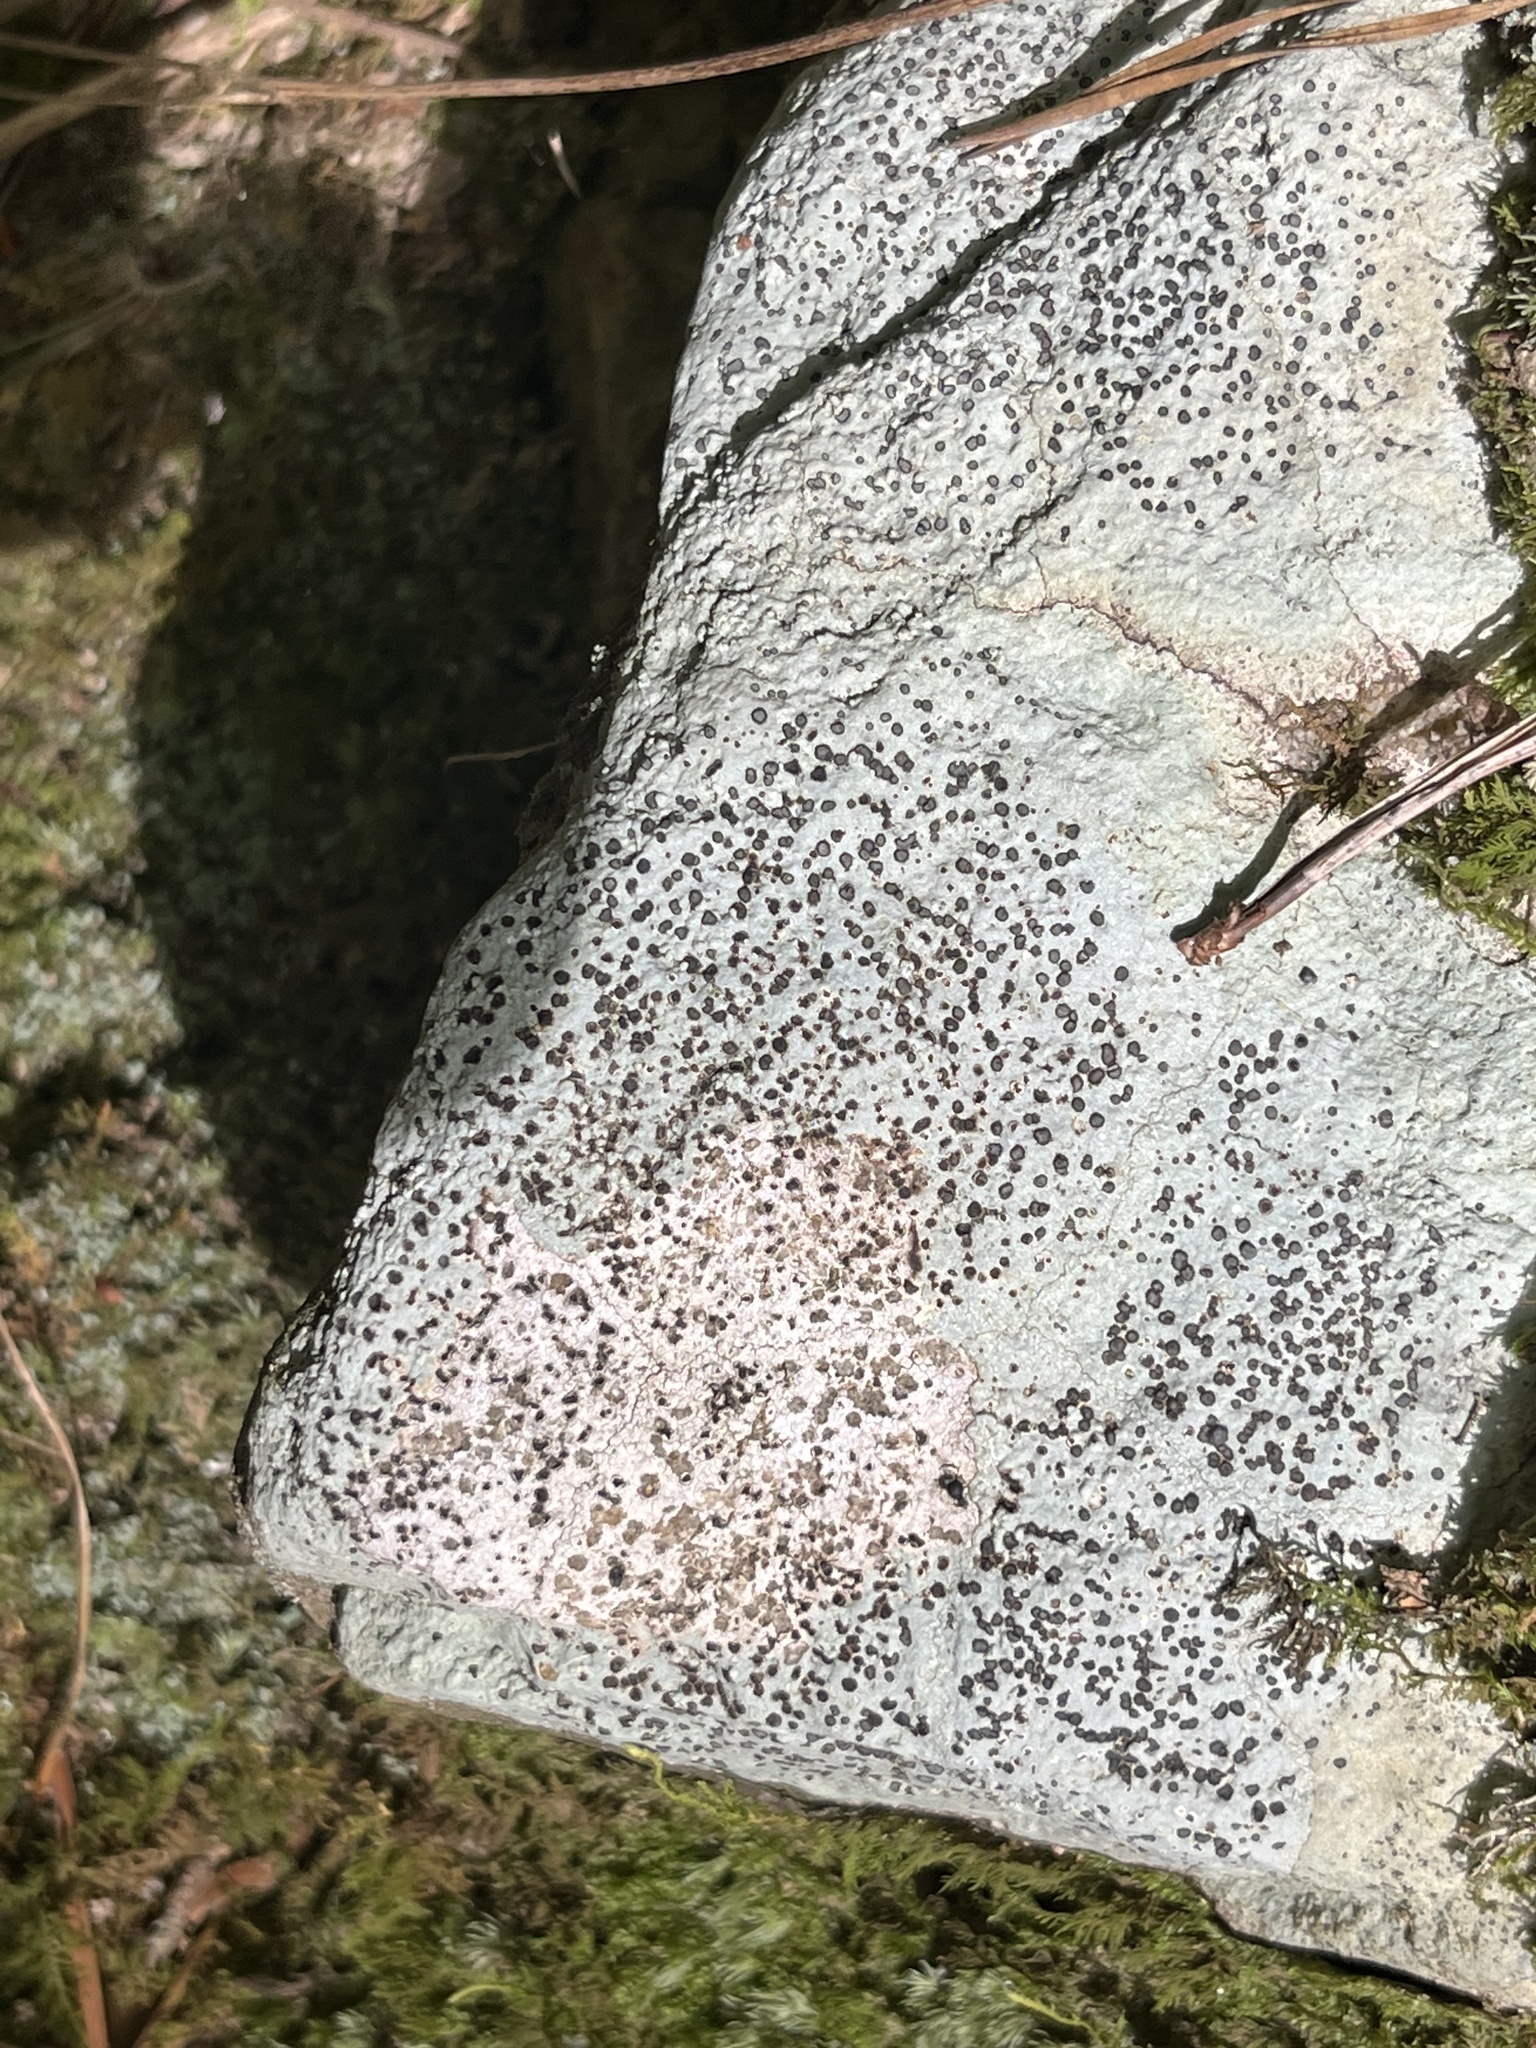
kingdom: Fungi
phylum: Ascomycota
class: Lecanoromycetes
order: Lecideales
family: Lecideaceae
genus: Porpidia
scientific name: Porpidia albocaerulescens
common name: Smokey-eyed boulder lichen
